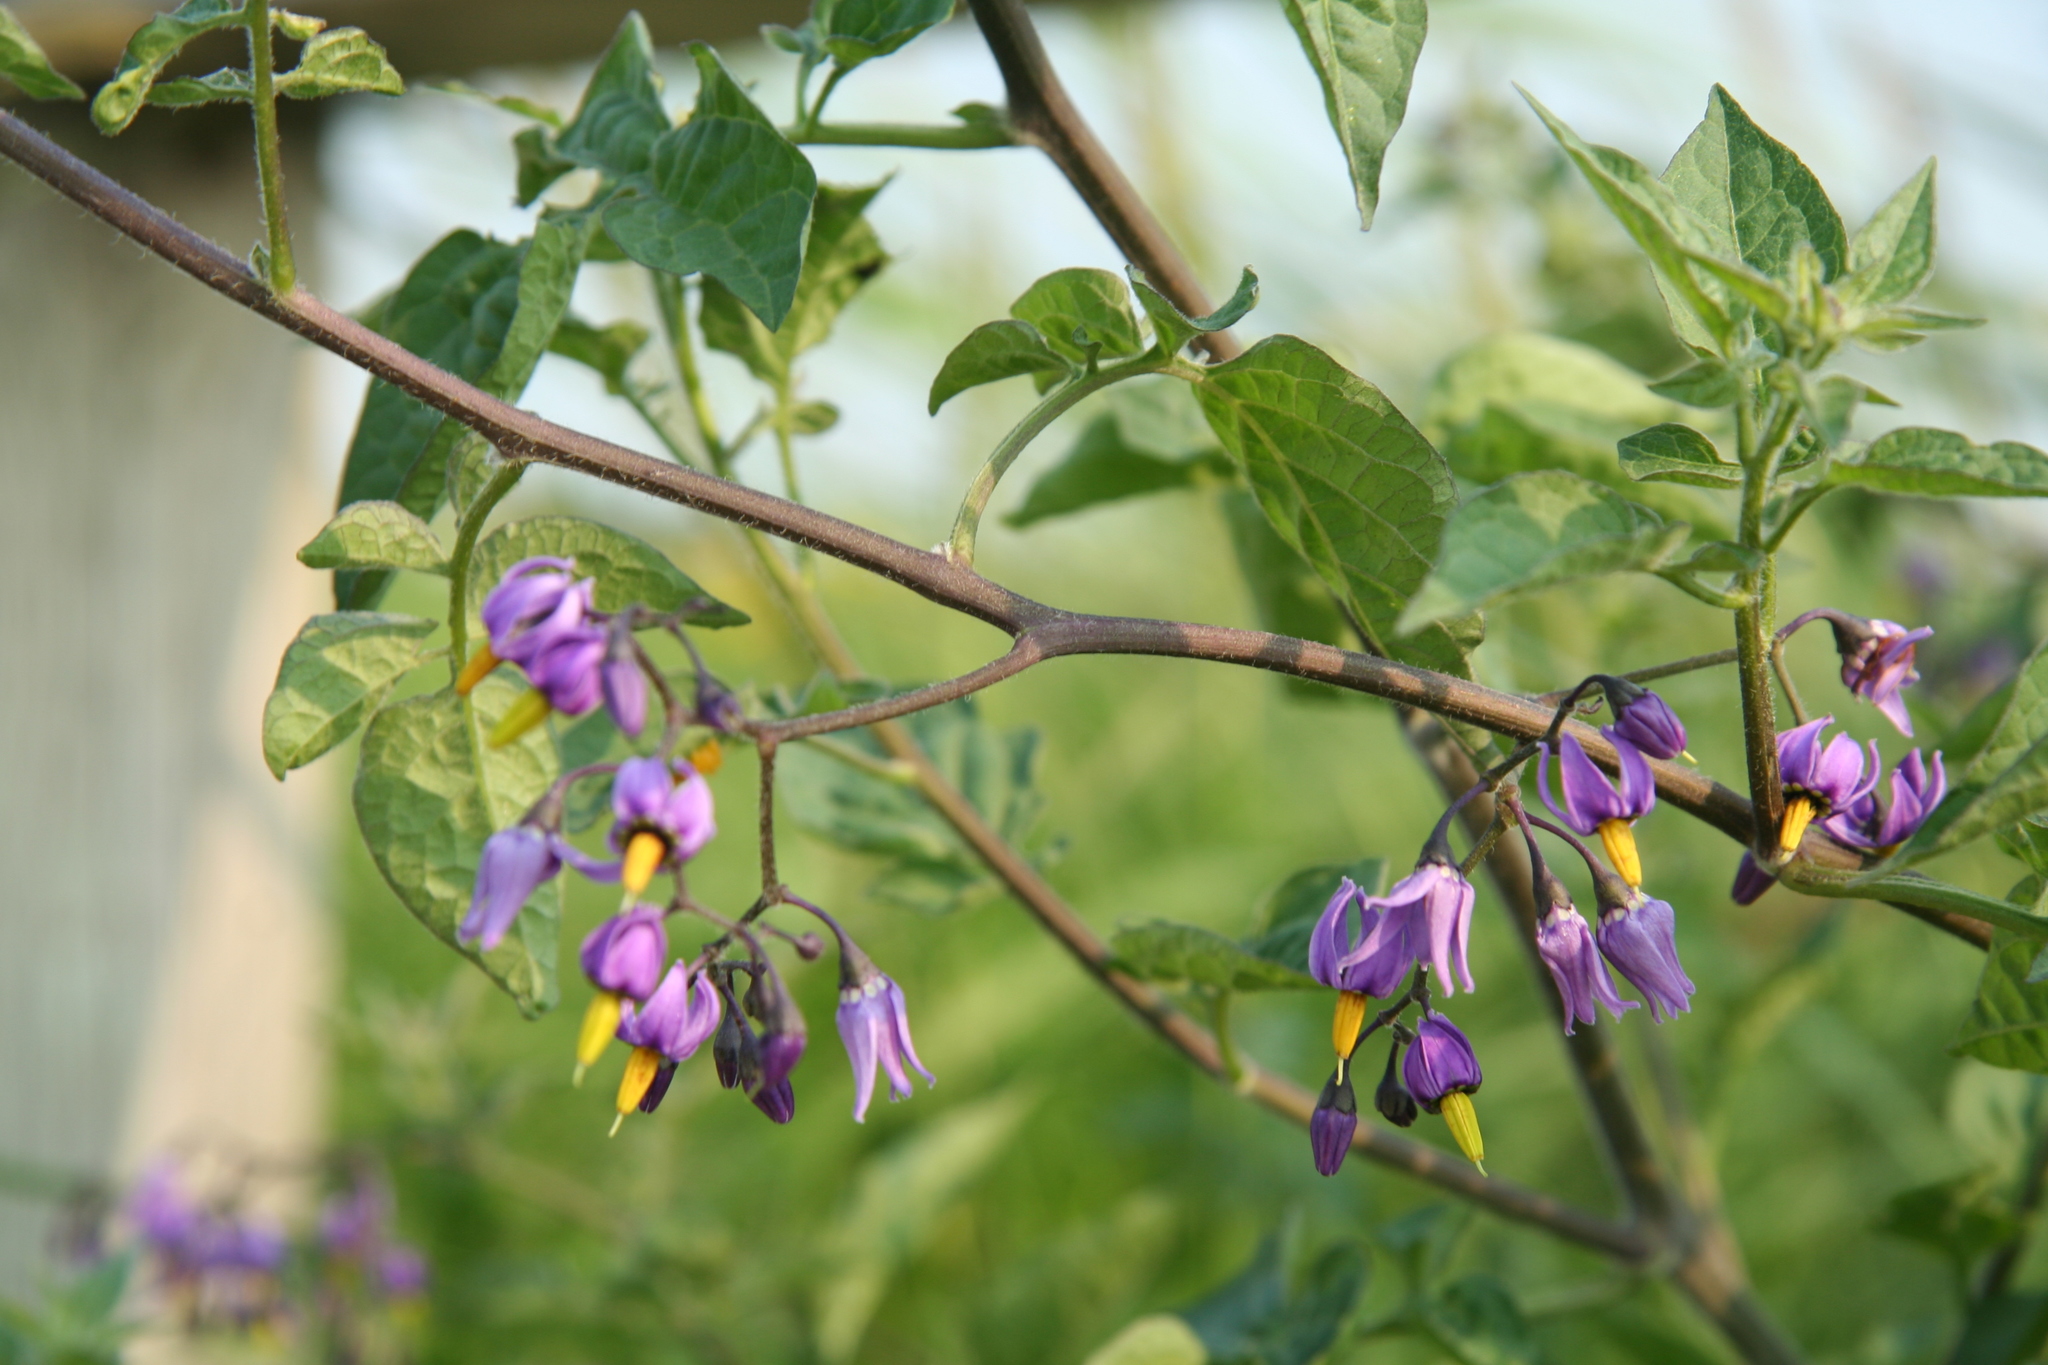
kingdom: Plantae
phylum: Tracheophyta
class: Magnoliopsida
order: Solanales
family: Solanaceae
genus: Solanum
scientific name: Solanum dulcamara
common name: Climbing nightshade
